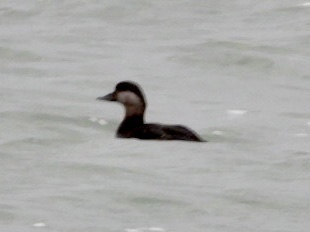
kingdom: Animalia
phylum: Chordata
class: Aves
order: Anseriformes
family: Anatidae
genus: Melanitta
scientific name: Melanitta americana
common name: Black scoter
